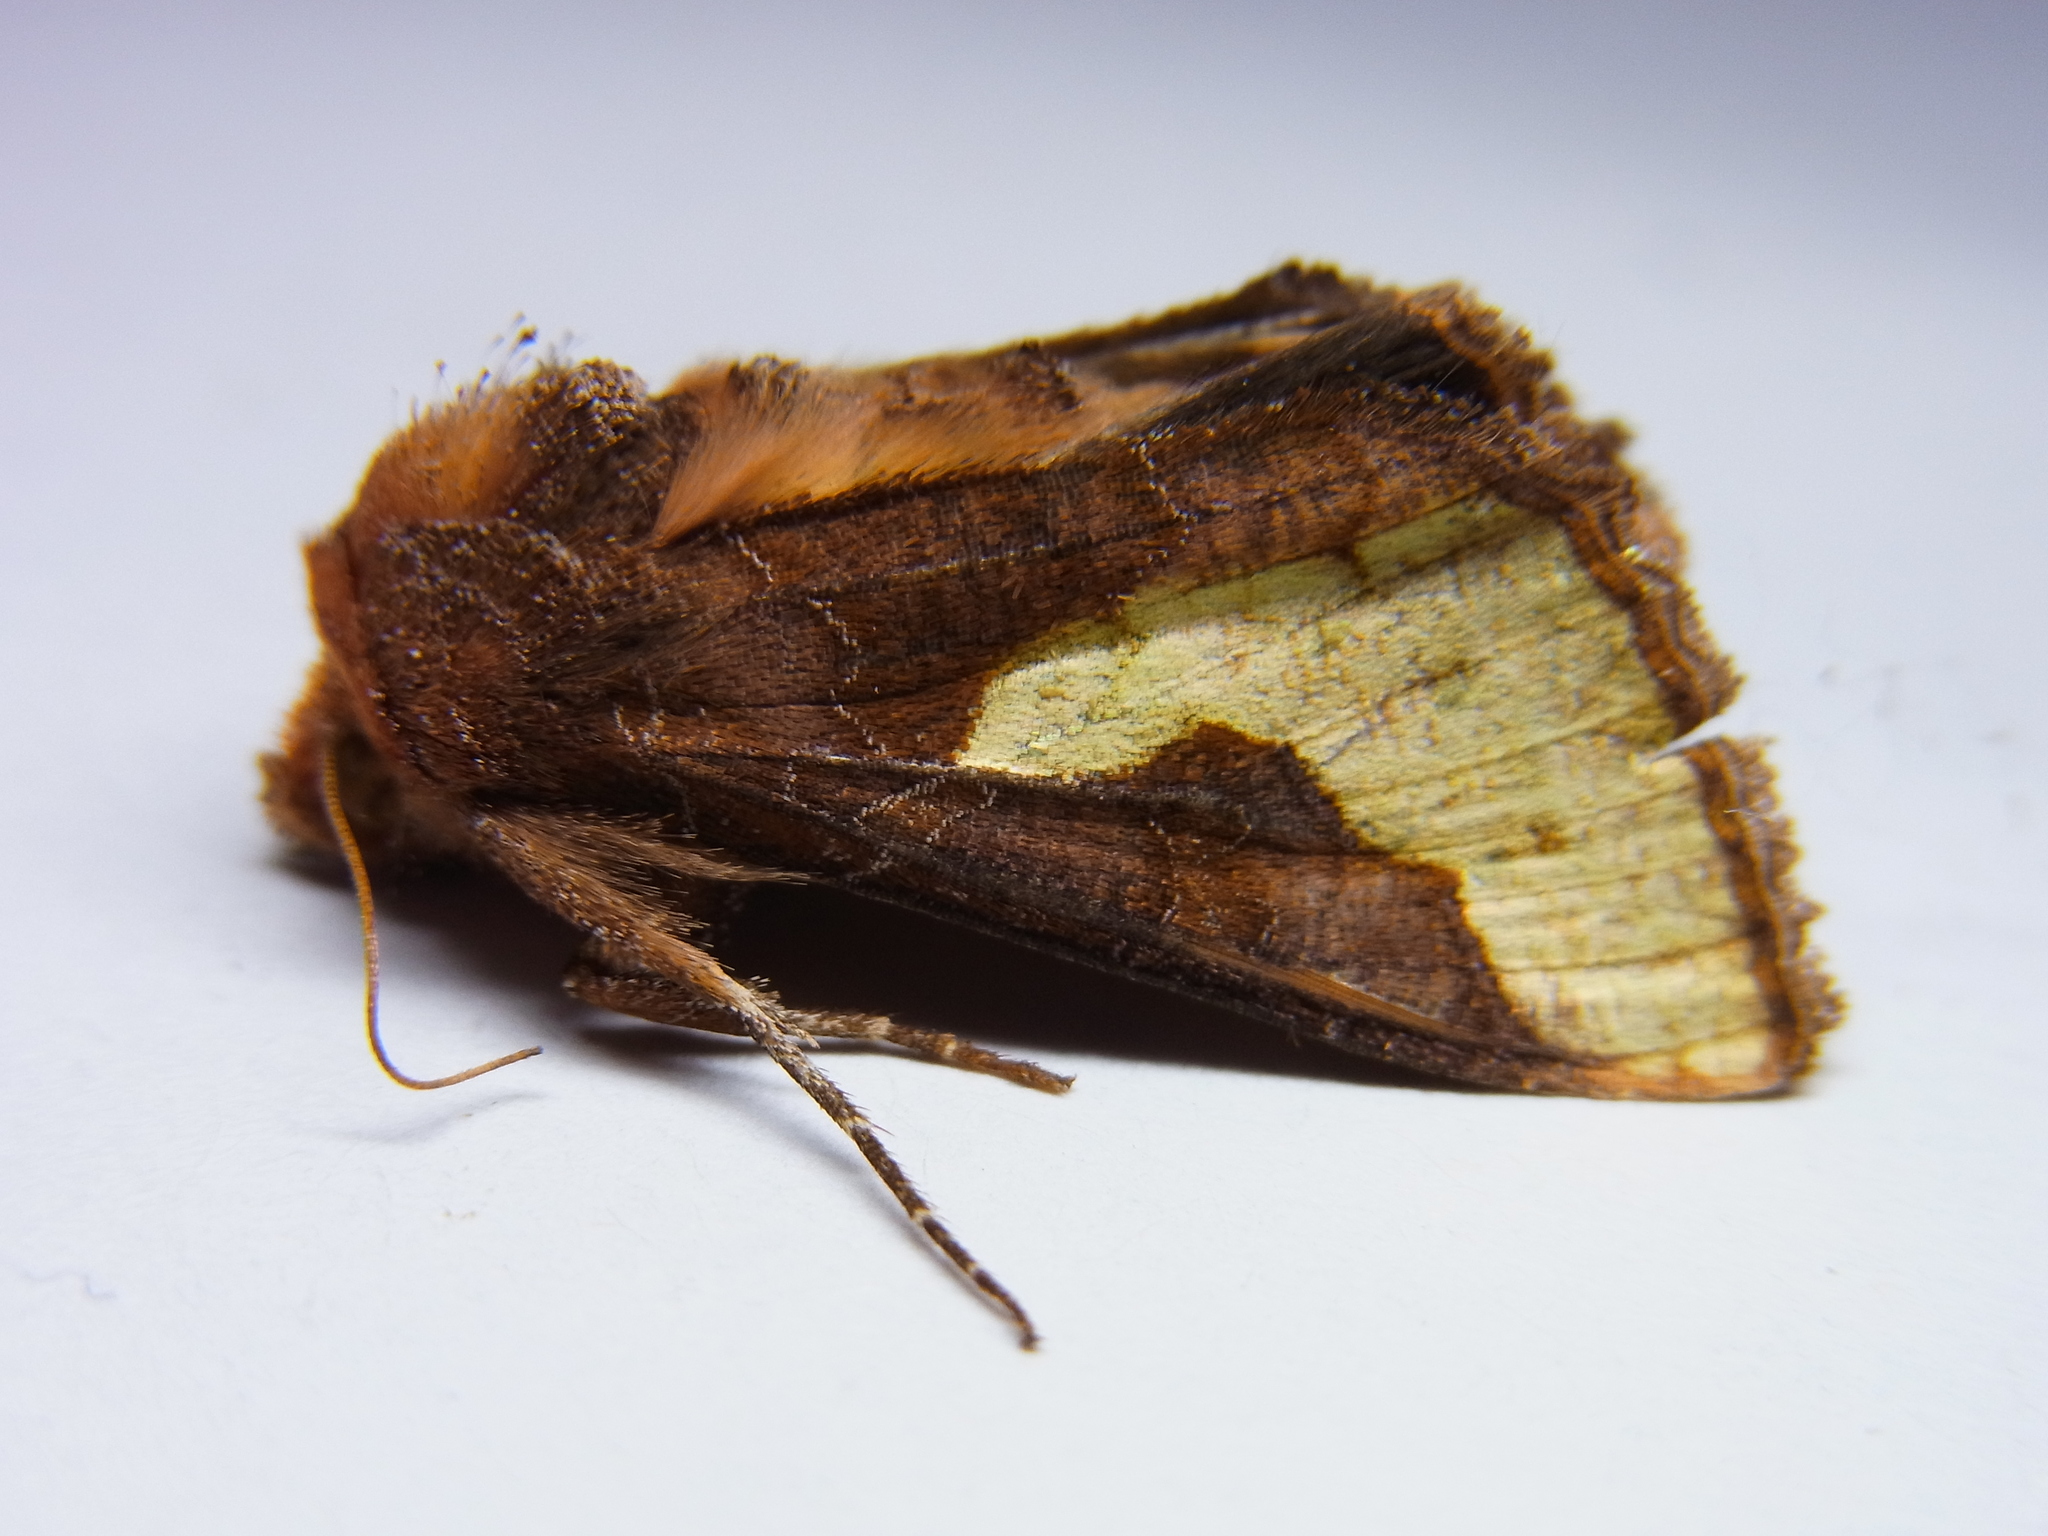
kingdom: Animalia
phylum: Arthropoda
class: Insecta
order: Lepidoptera
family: Noctuidae
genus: Thysanoplusia
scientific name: Thysanoplusia intermixta
